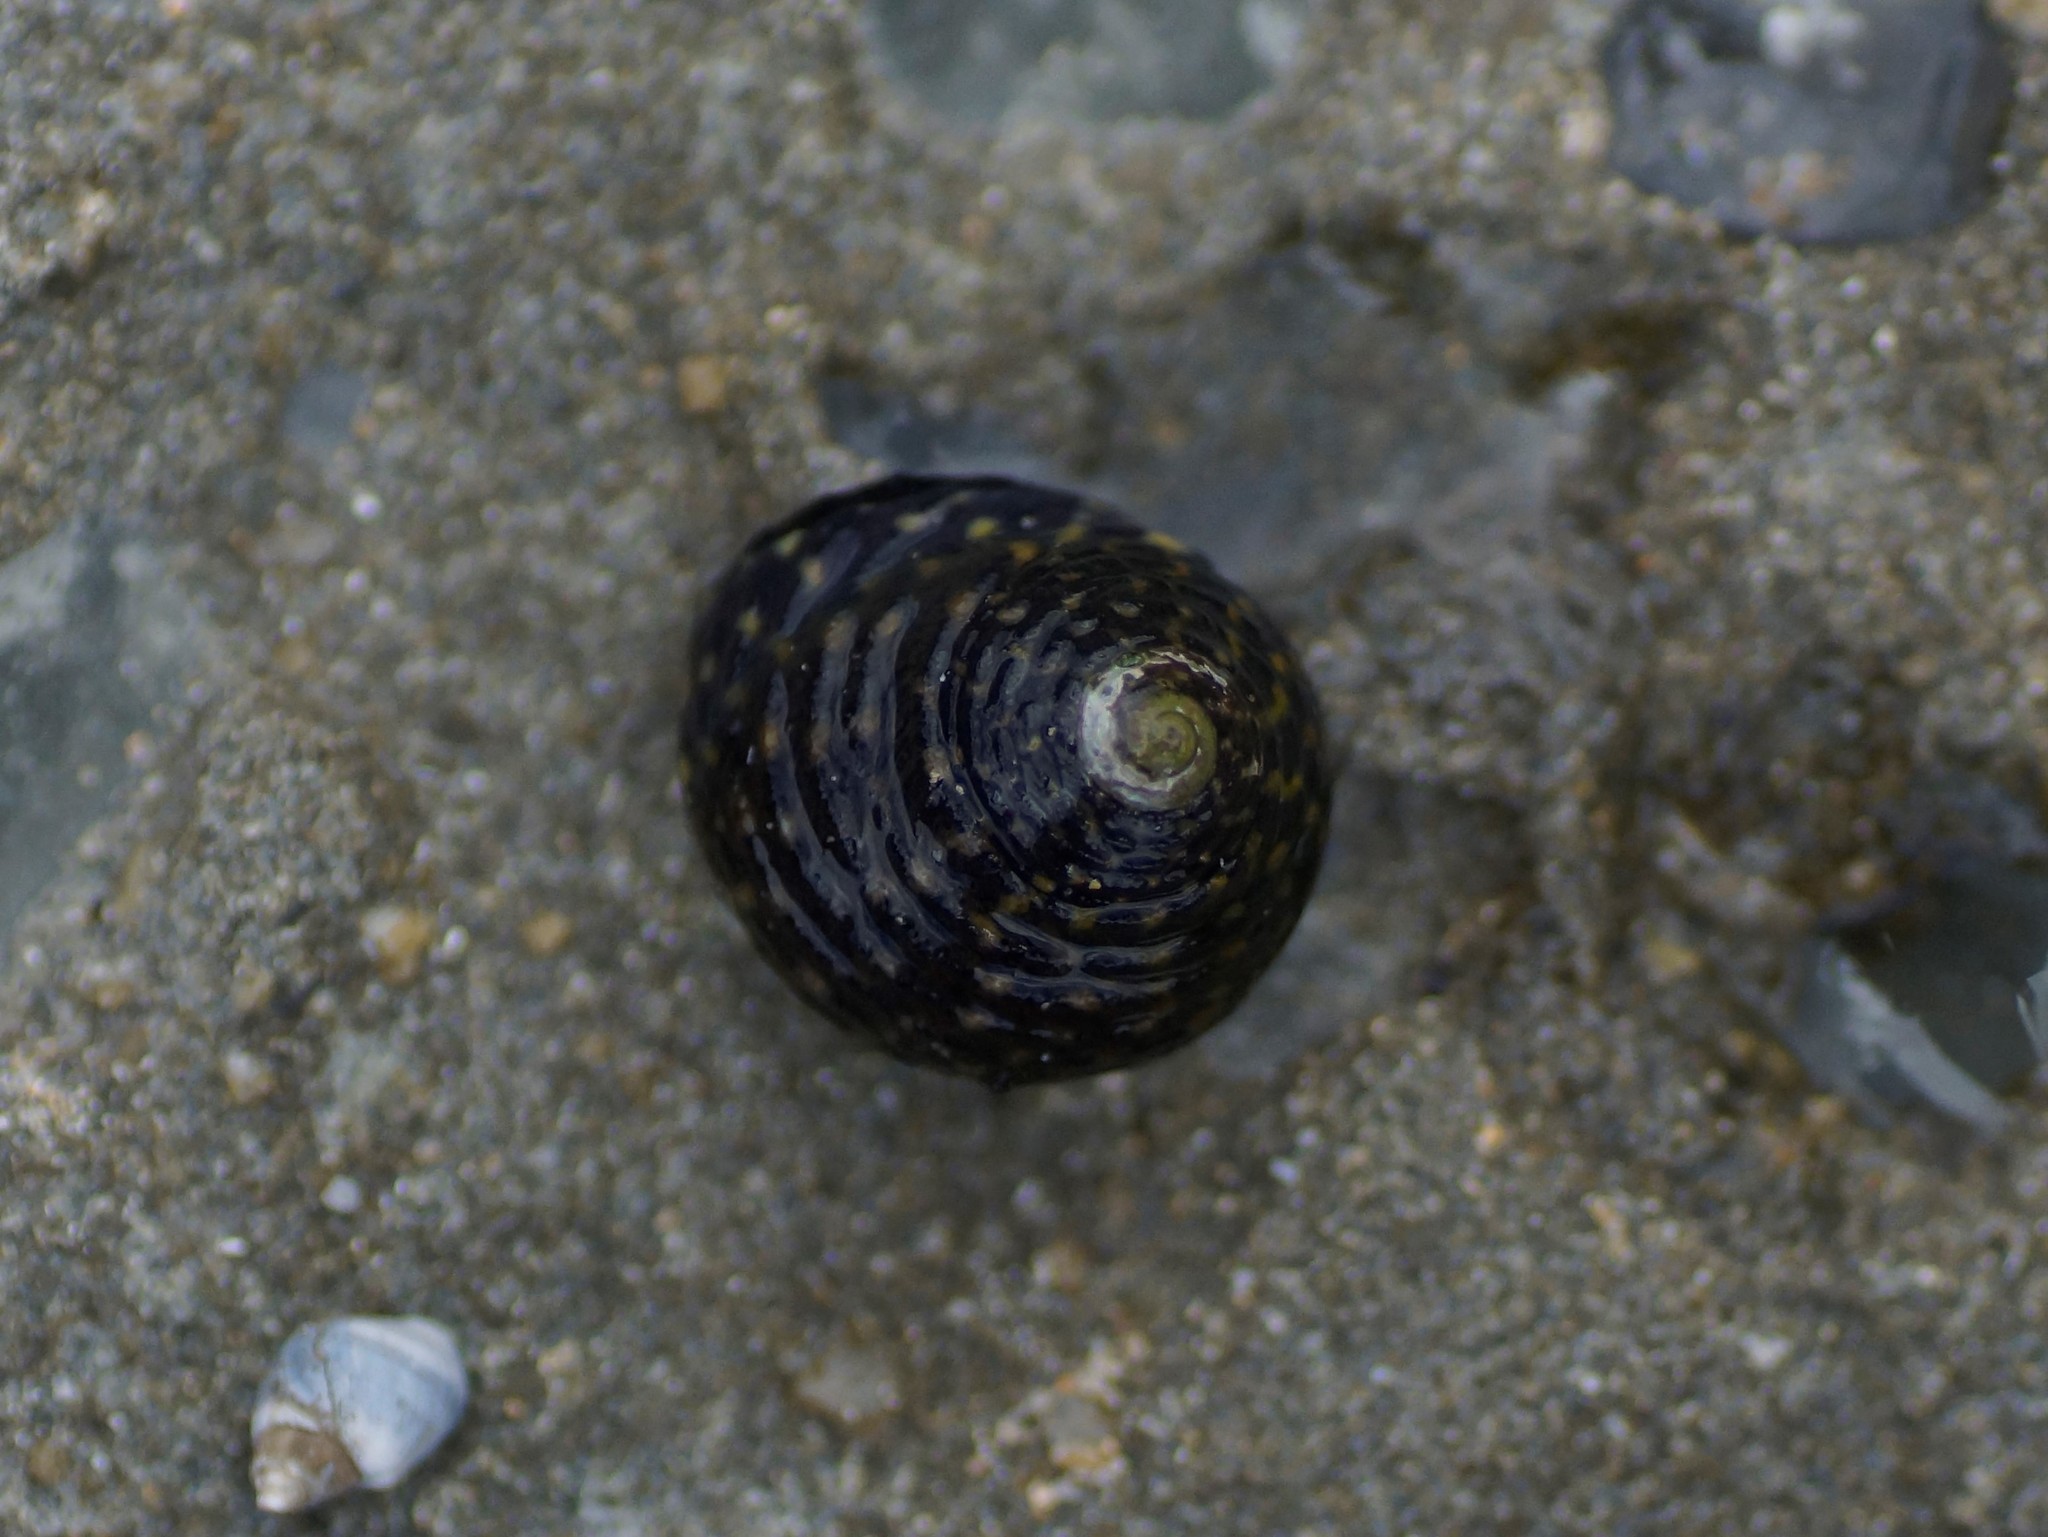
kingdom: Animalia
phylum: Mollusca
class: Gastropoda
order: Trochida
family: Trochidae
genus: Diloma
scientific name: Diloma concameratum
